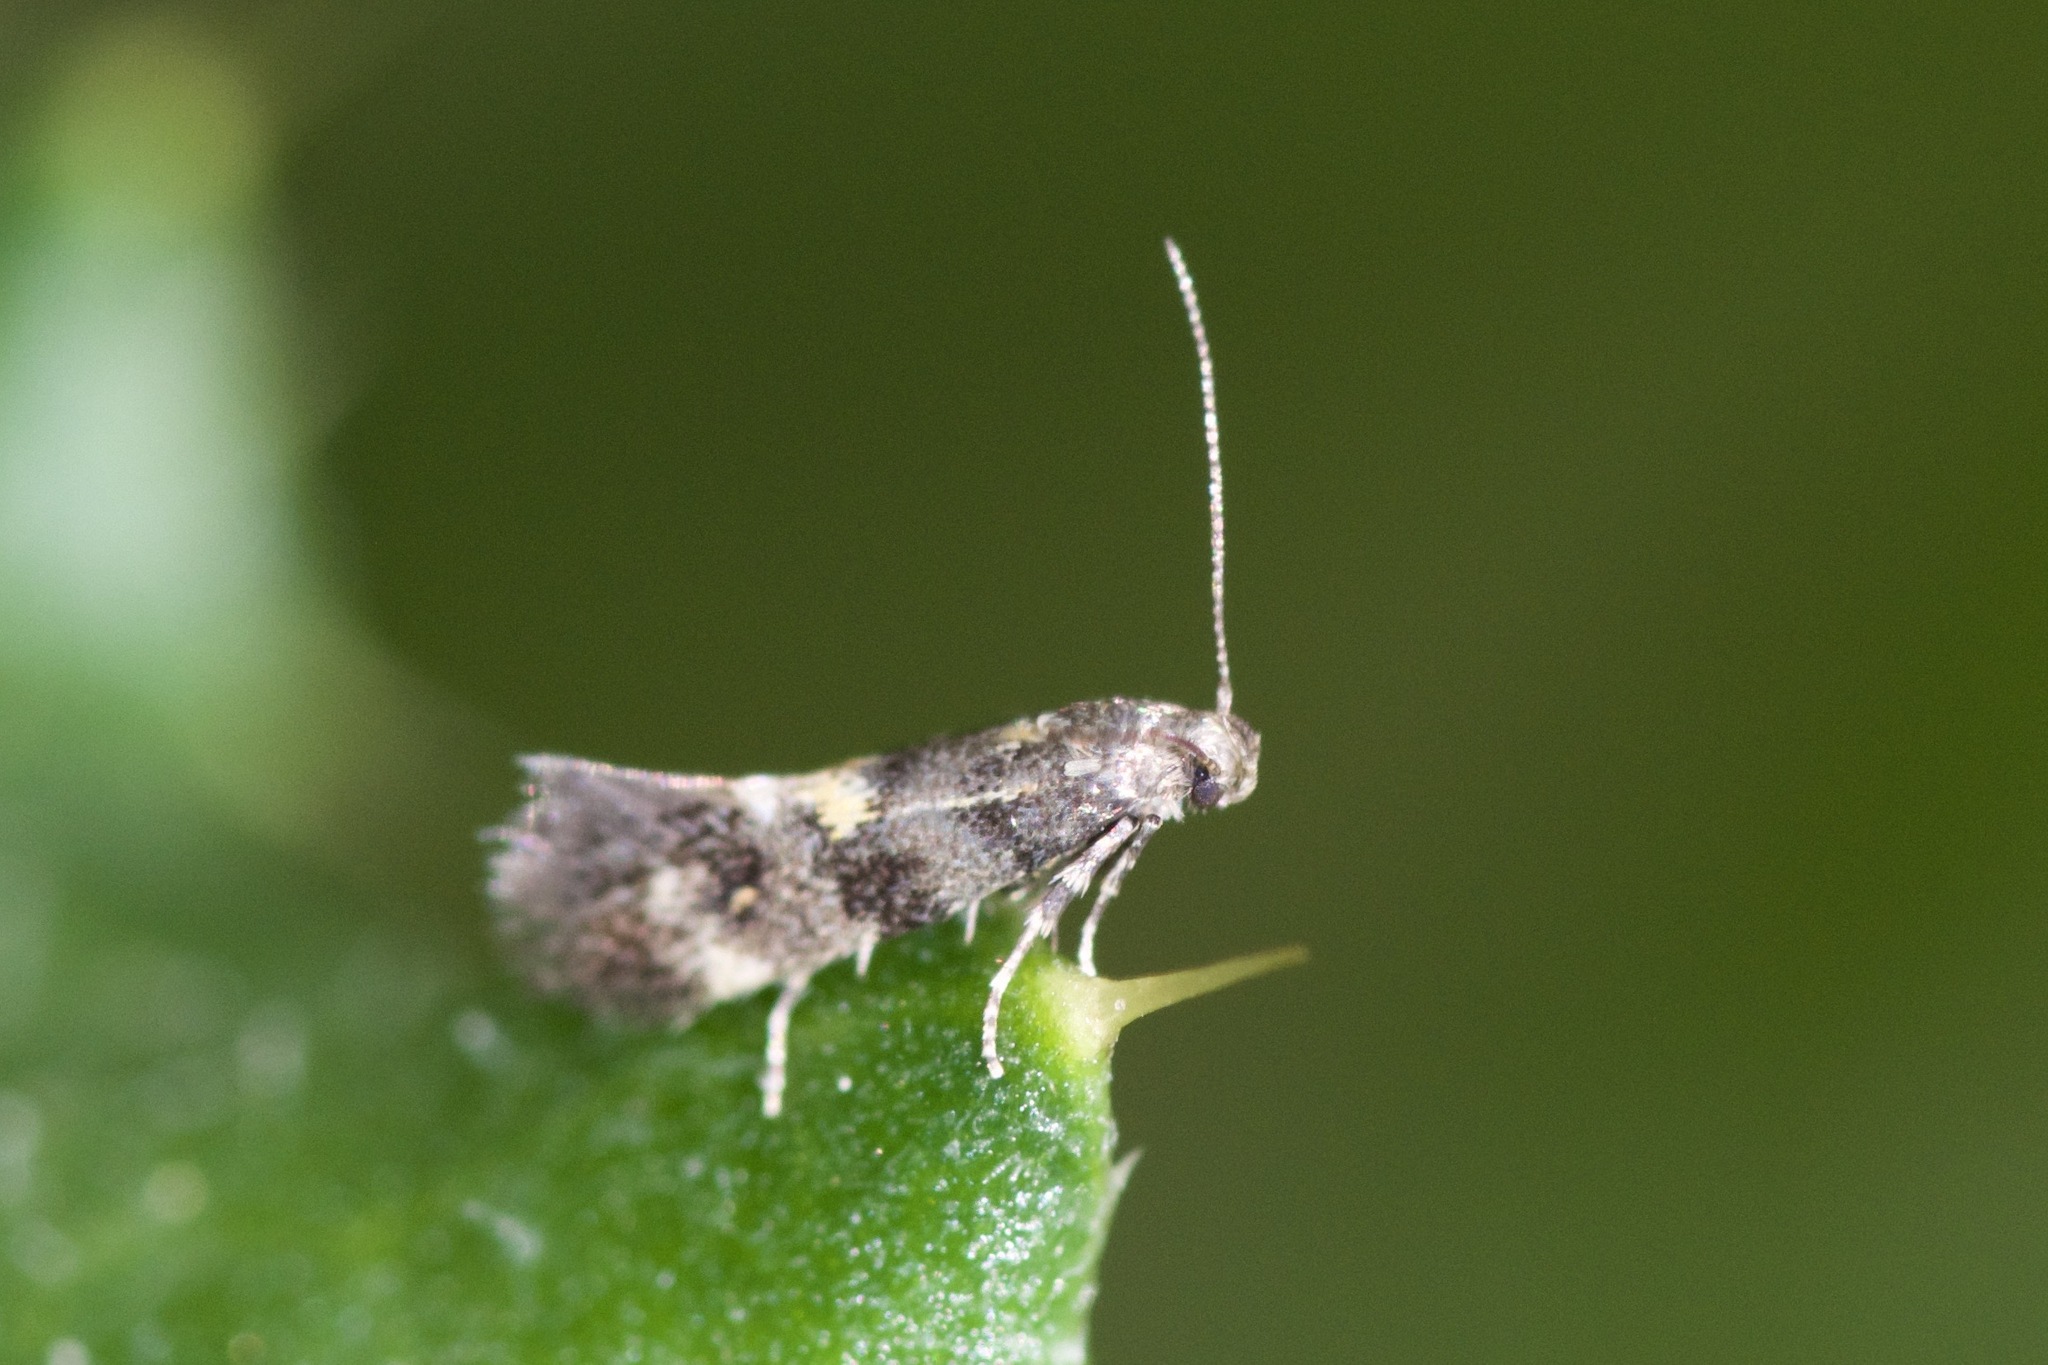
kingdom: Animalia
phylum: Arthropoda
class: Insecta
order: Lepidoptera
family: Gelechiidae
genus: Chrysoesthia
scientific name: Chrysoesthia sexguttella
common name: Moth
